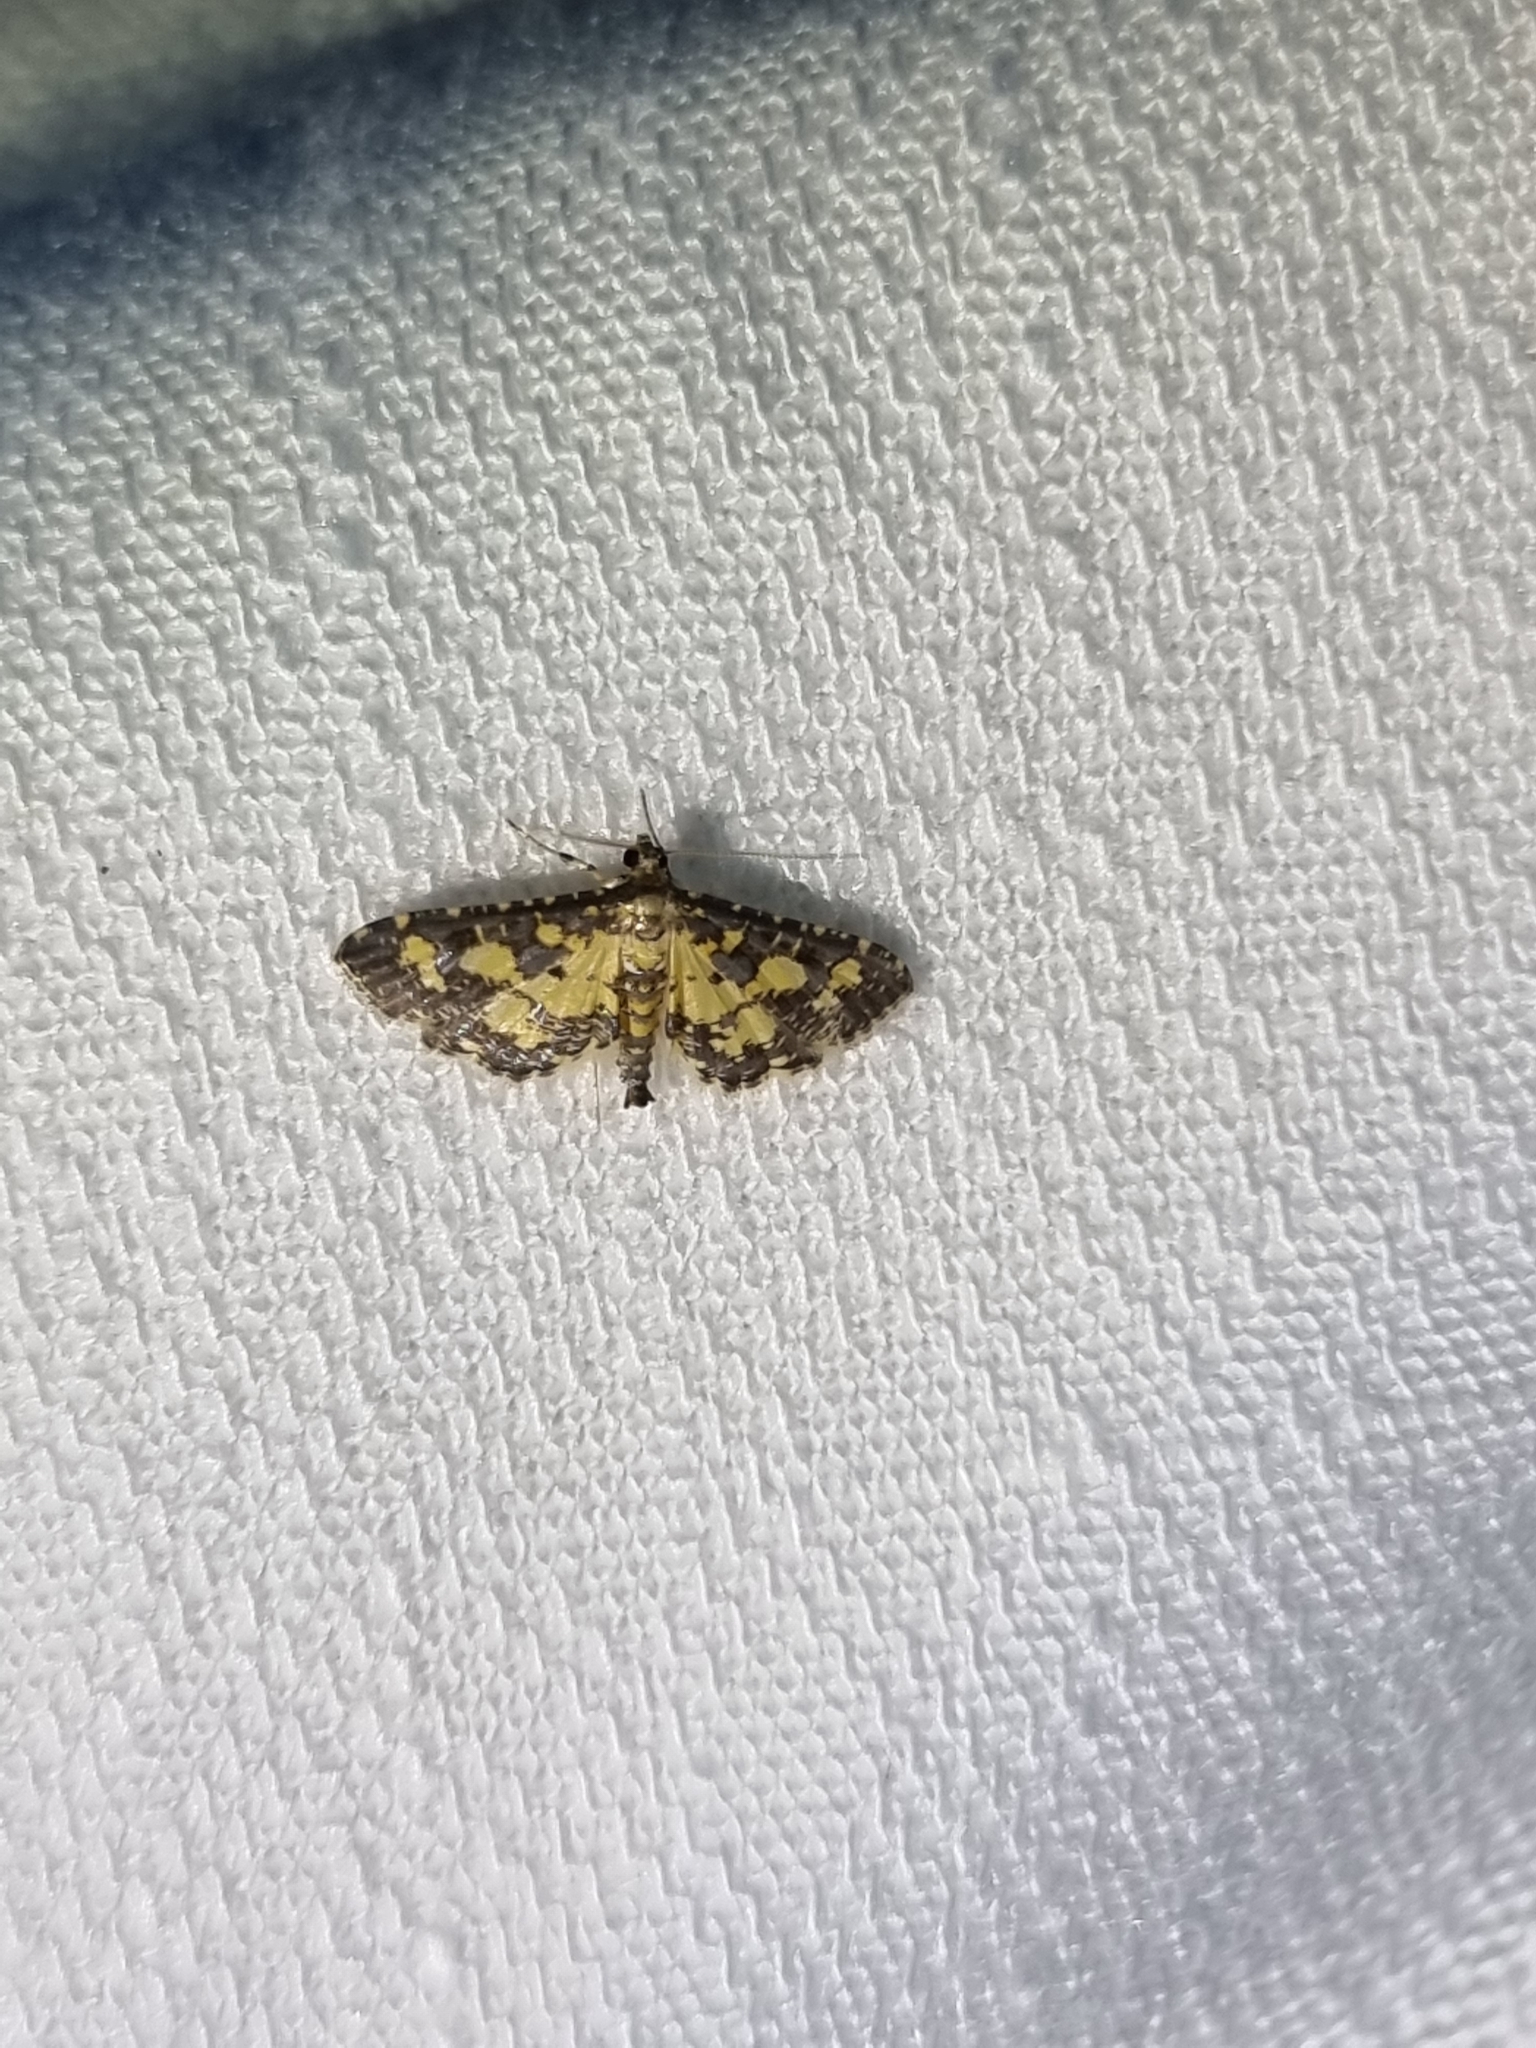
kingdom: Animalia
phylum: Arthropoda
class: Insecta
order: Lepidoptera
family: Crambidae
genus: Eurrhyparodes
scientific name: Eurrhyparodes bracteolalis
